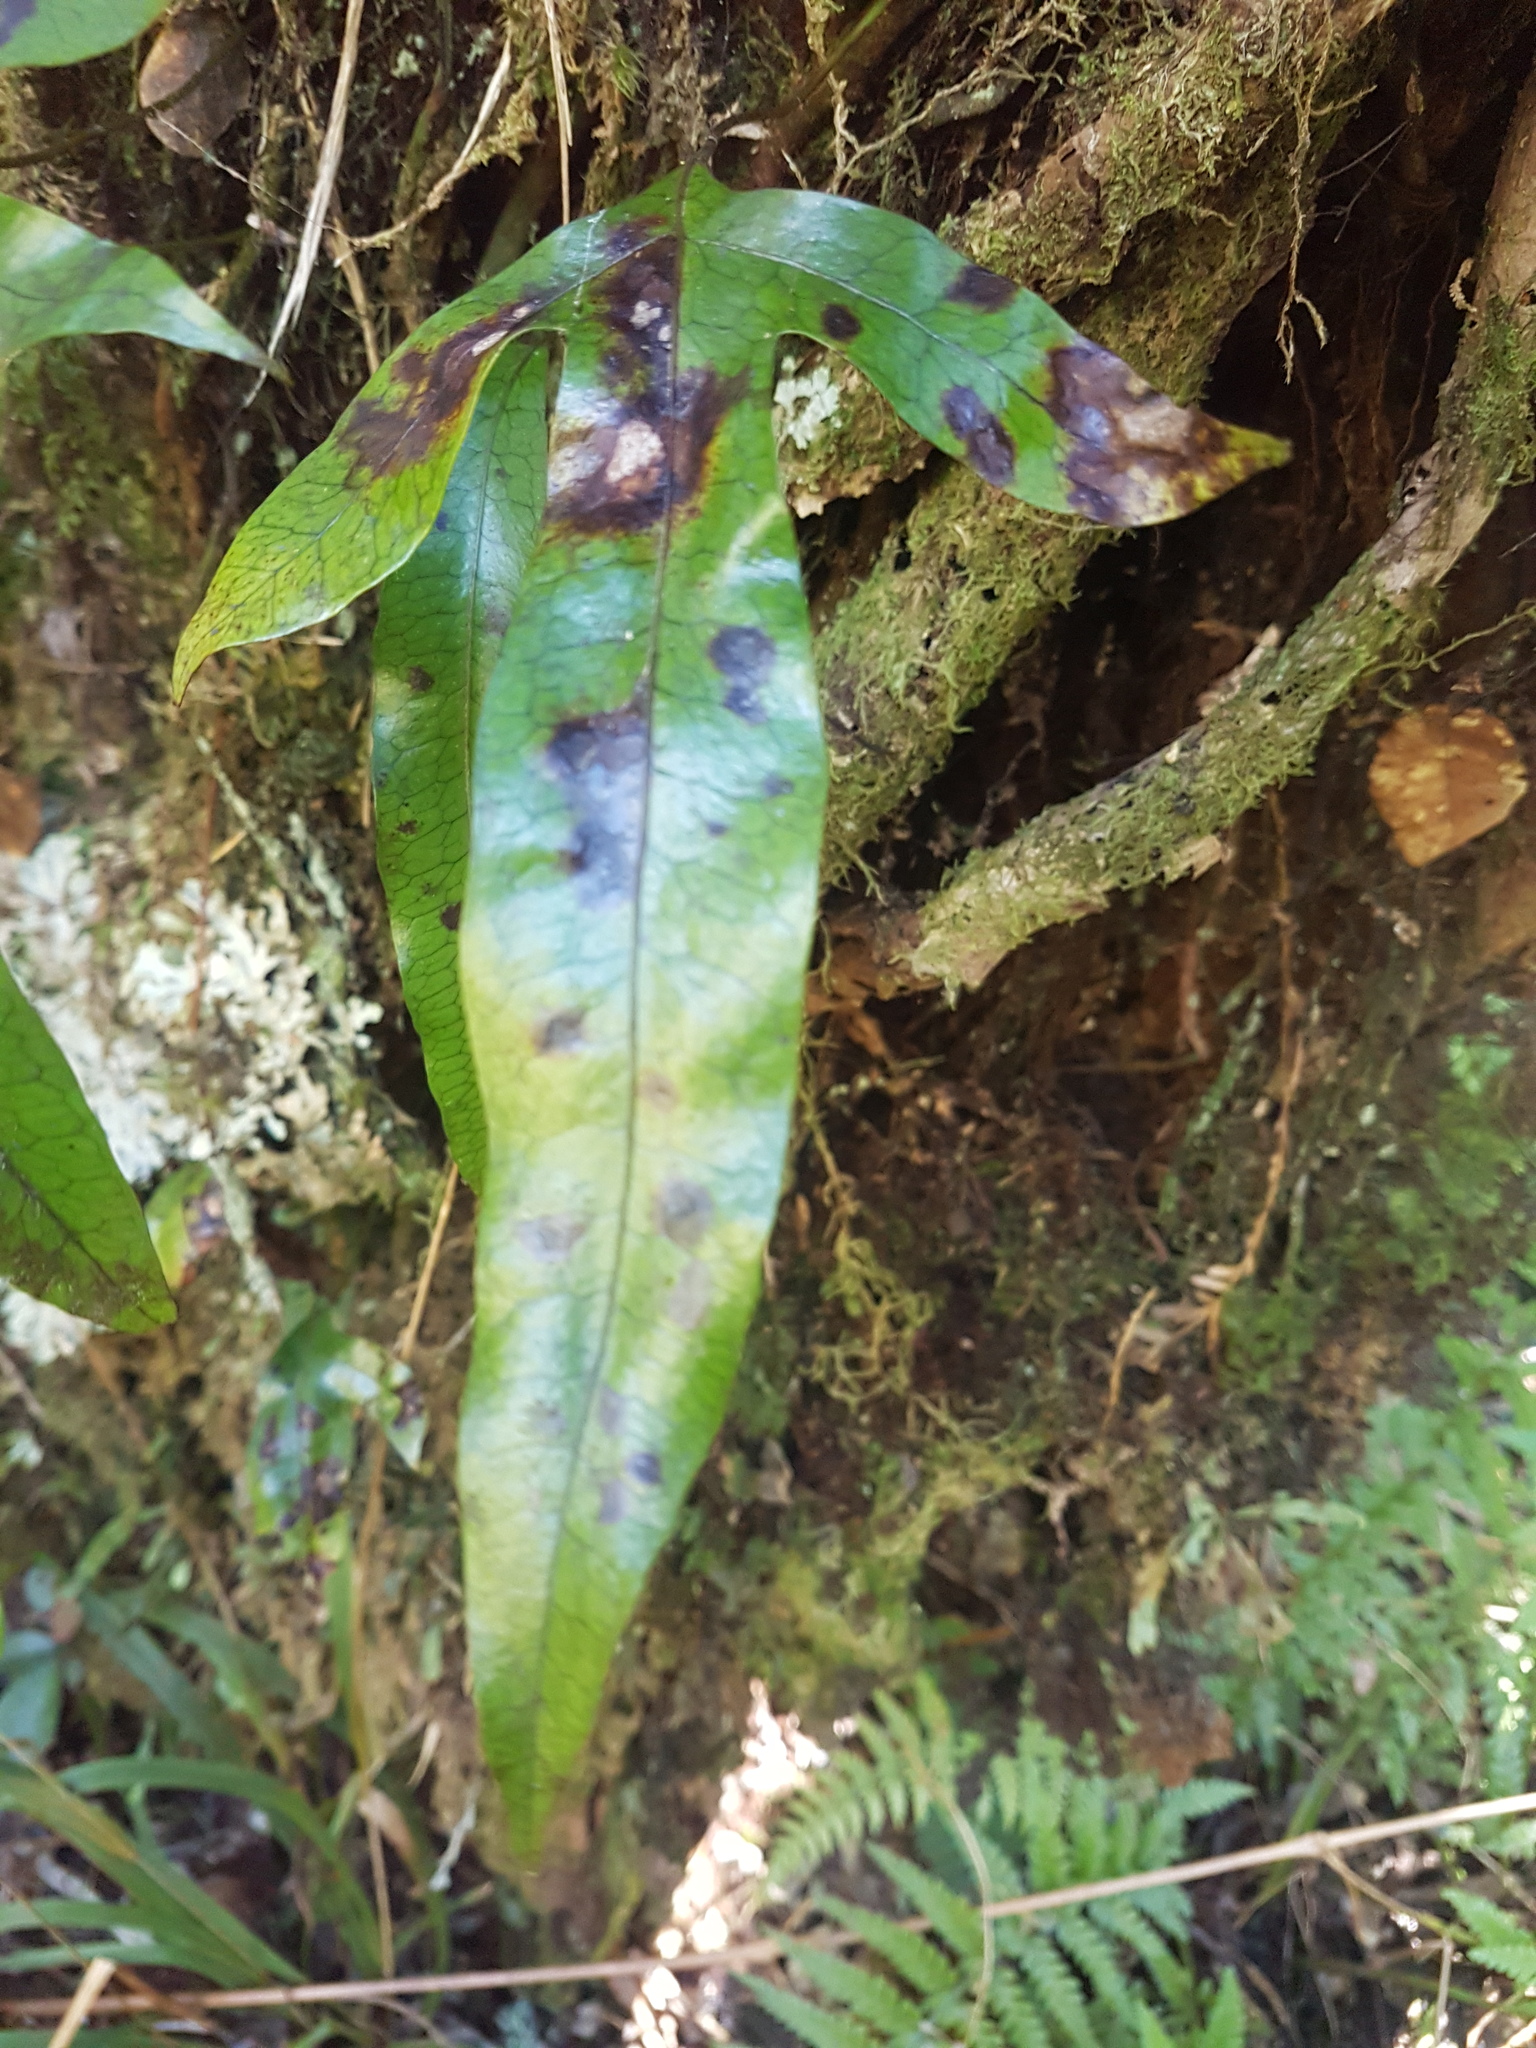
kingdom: Plantae
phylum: Tracheophyta
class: Polypodiopsida
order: Polypodiales
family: Polypodiaceae
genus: Lecanopteris
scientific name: Lecanopteris pustulata
